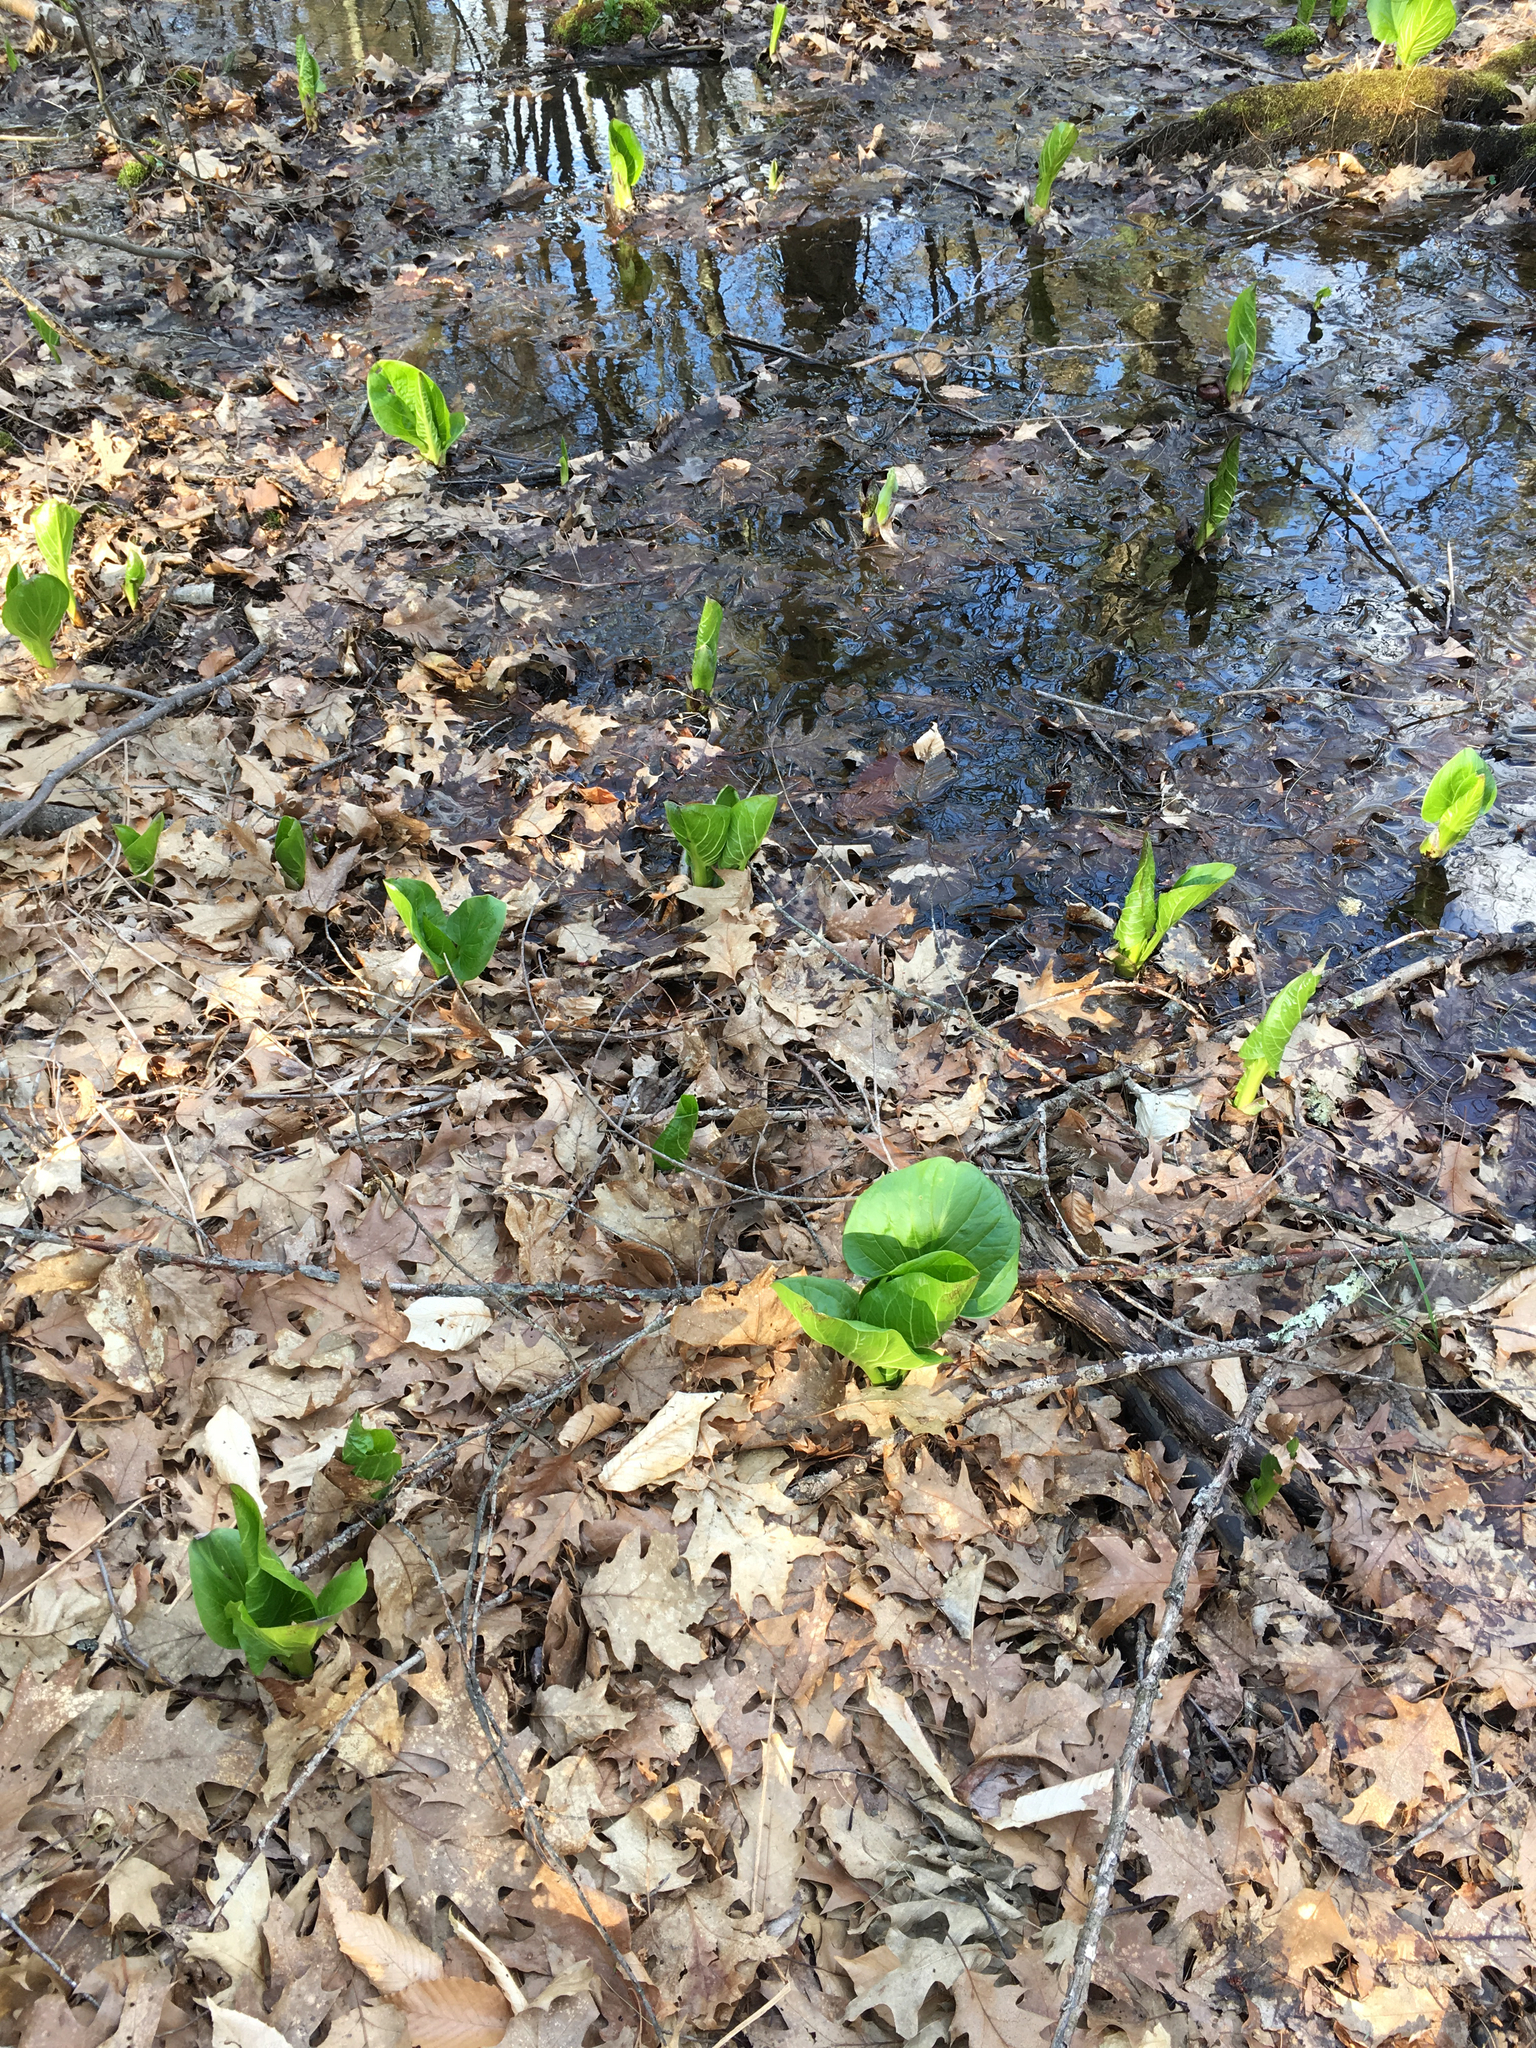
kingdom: Plantae
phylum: Tracheophyta
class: Liliopsida
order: Alismatales
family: Araceae
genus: Symplocarpus
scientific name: Symplocarpus foetidus
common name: Eastern skunk cabbage
